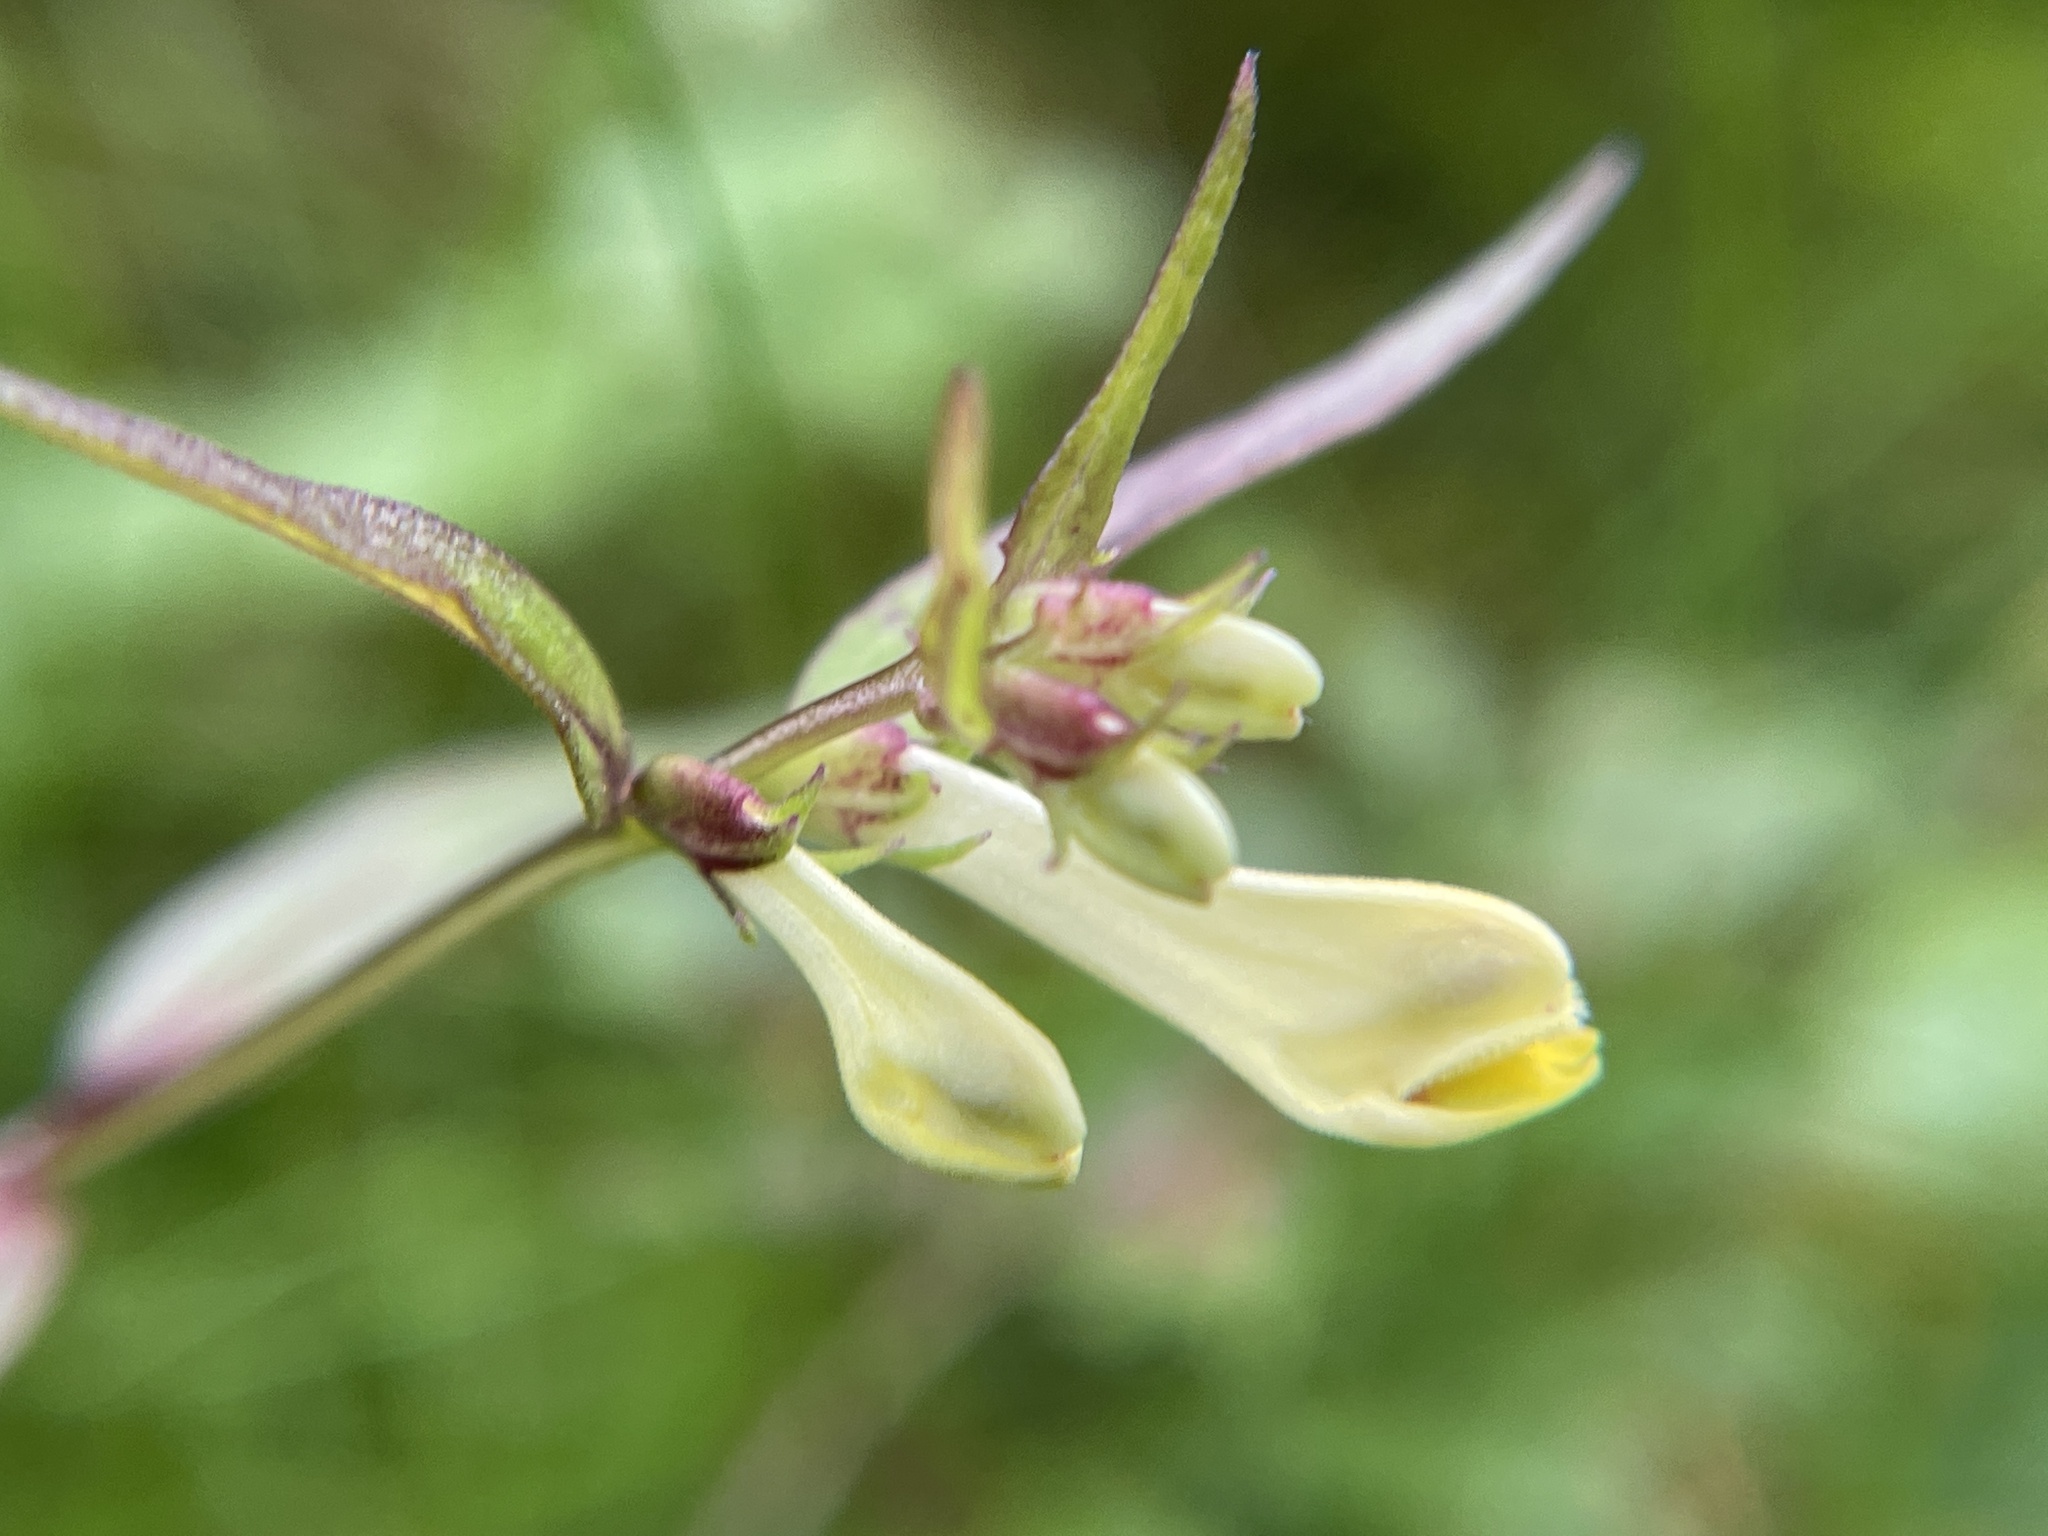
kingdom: Plantae
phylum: Tracheophyta
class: Magnoliopsida
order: Lamiales
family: Orobanchaceae
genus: Melampyrum
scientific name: Melampyrum pratense
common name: Common cow-wheat
